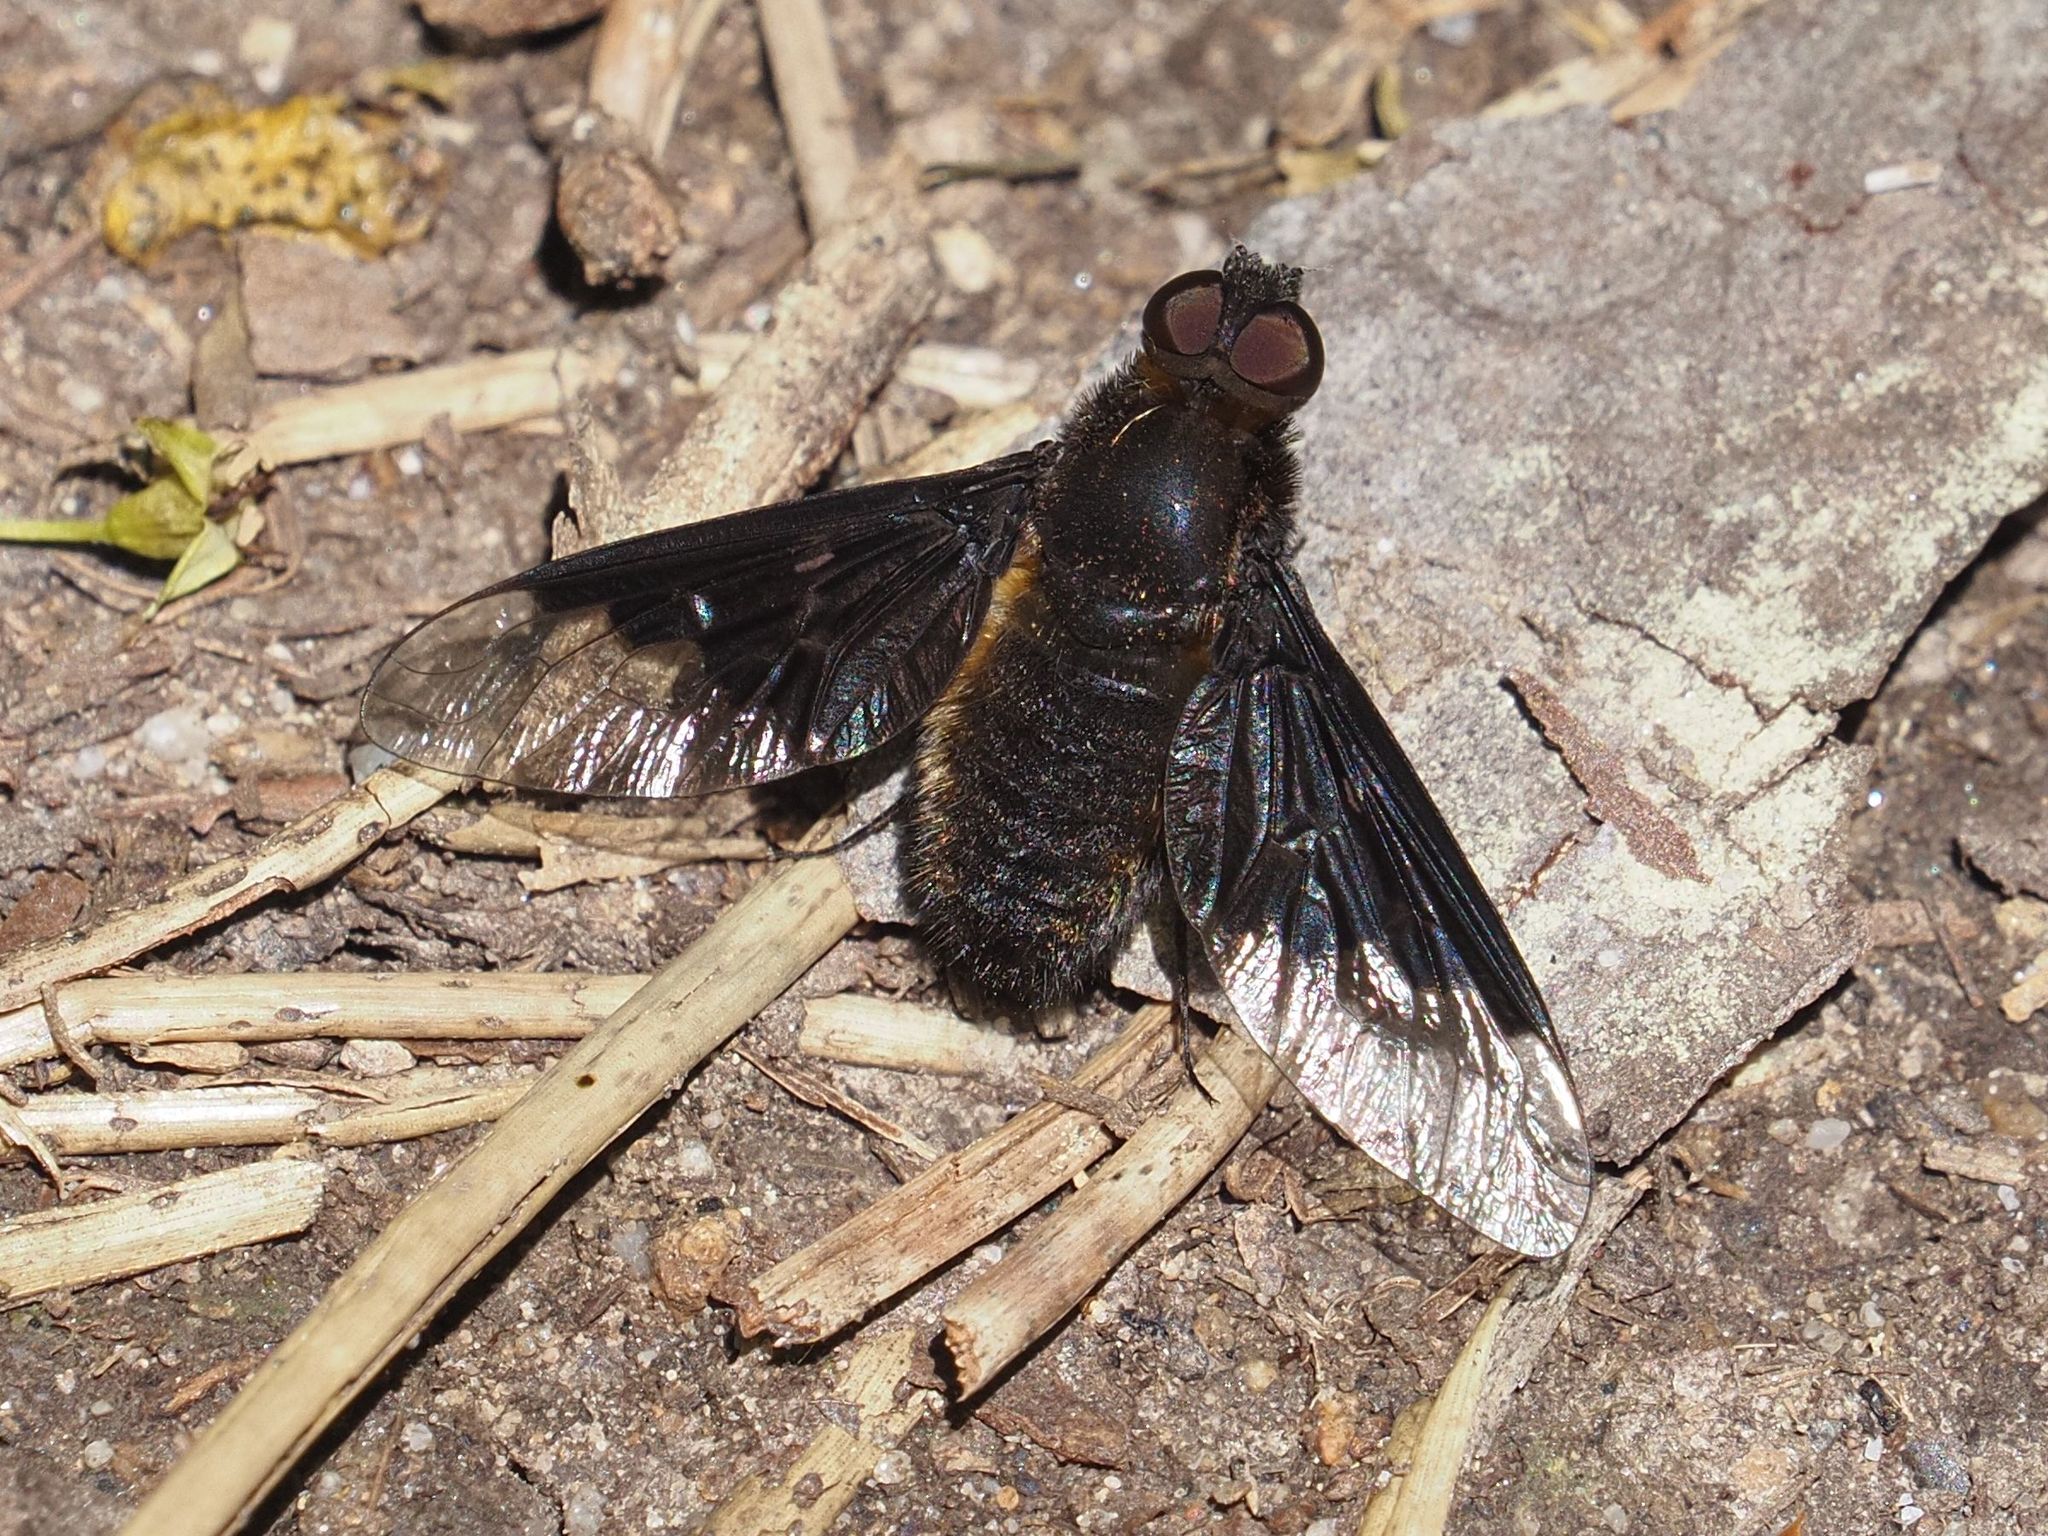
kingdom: Animalia
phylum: Arthropoda
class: Insecta
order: Diptera
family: Bombyliidae
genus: Hemipenthes
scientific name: Hemipenthes morio
